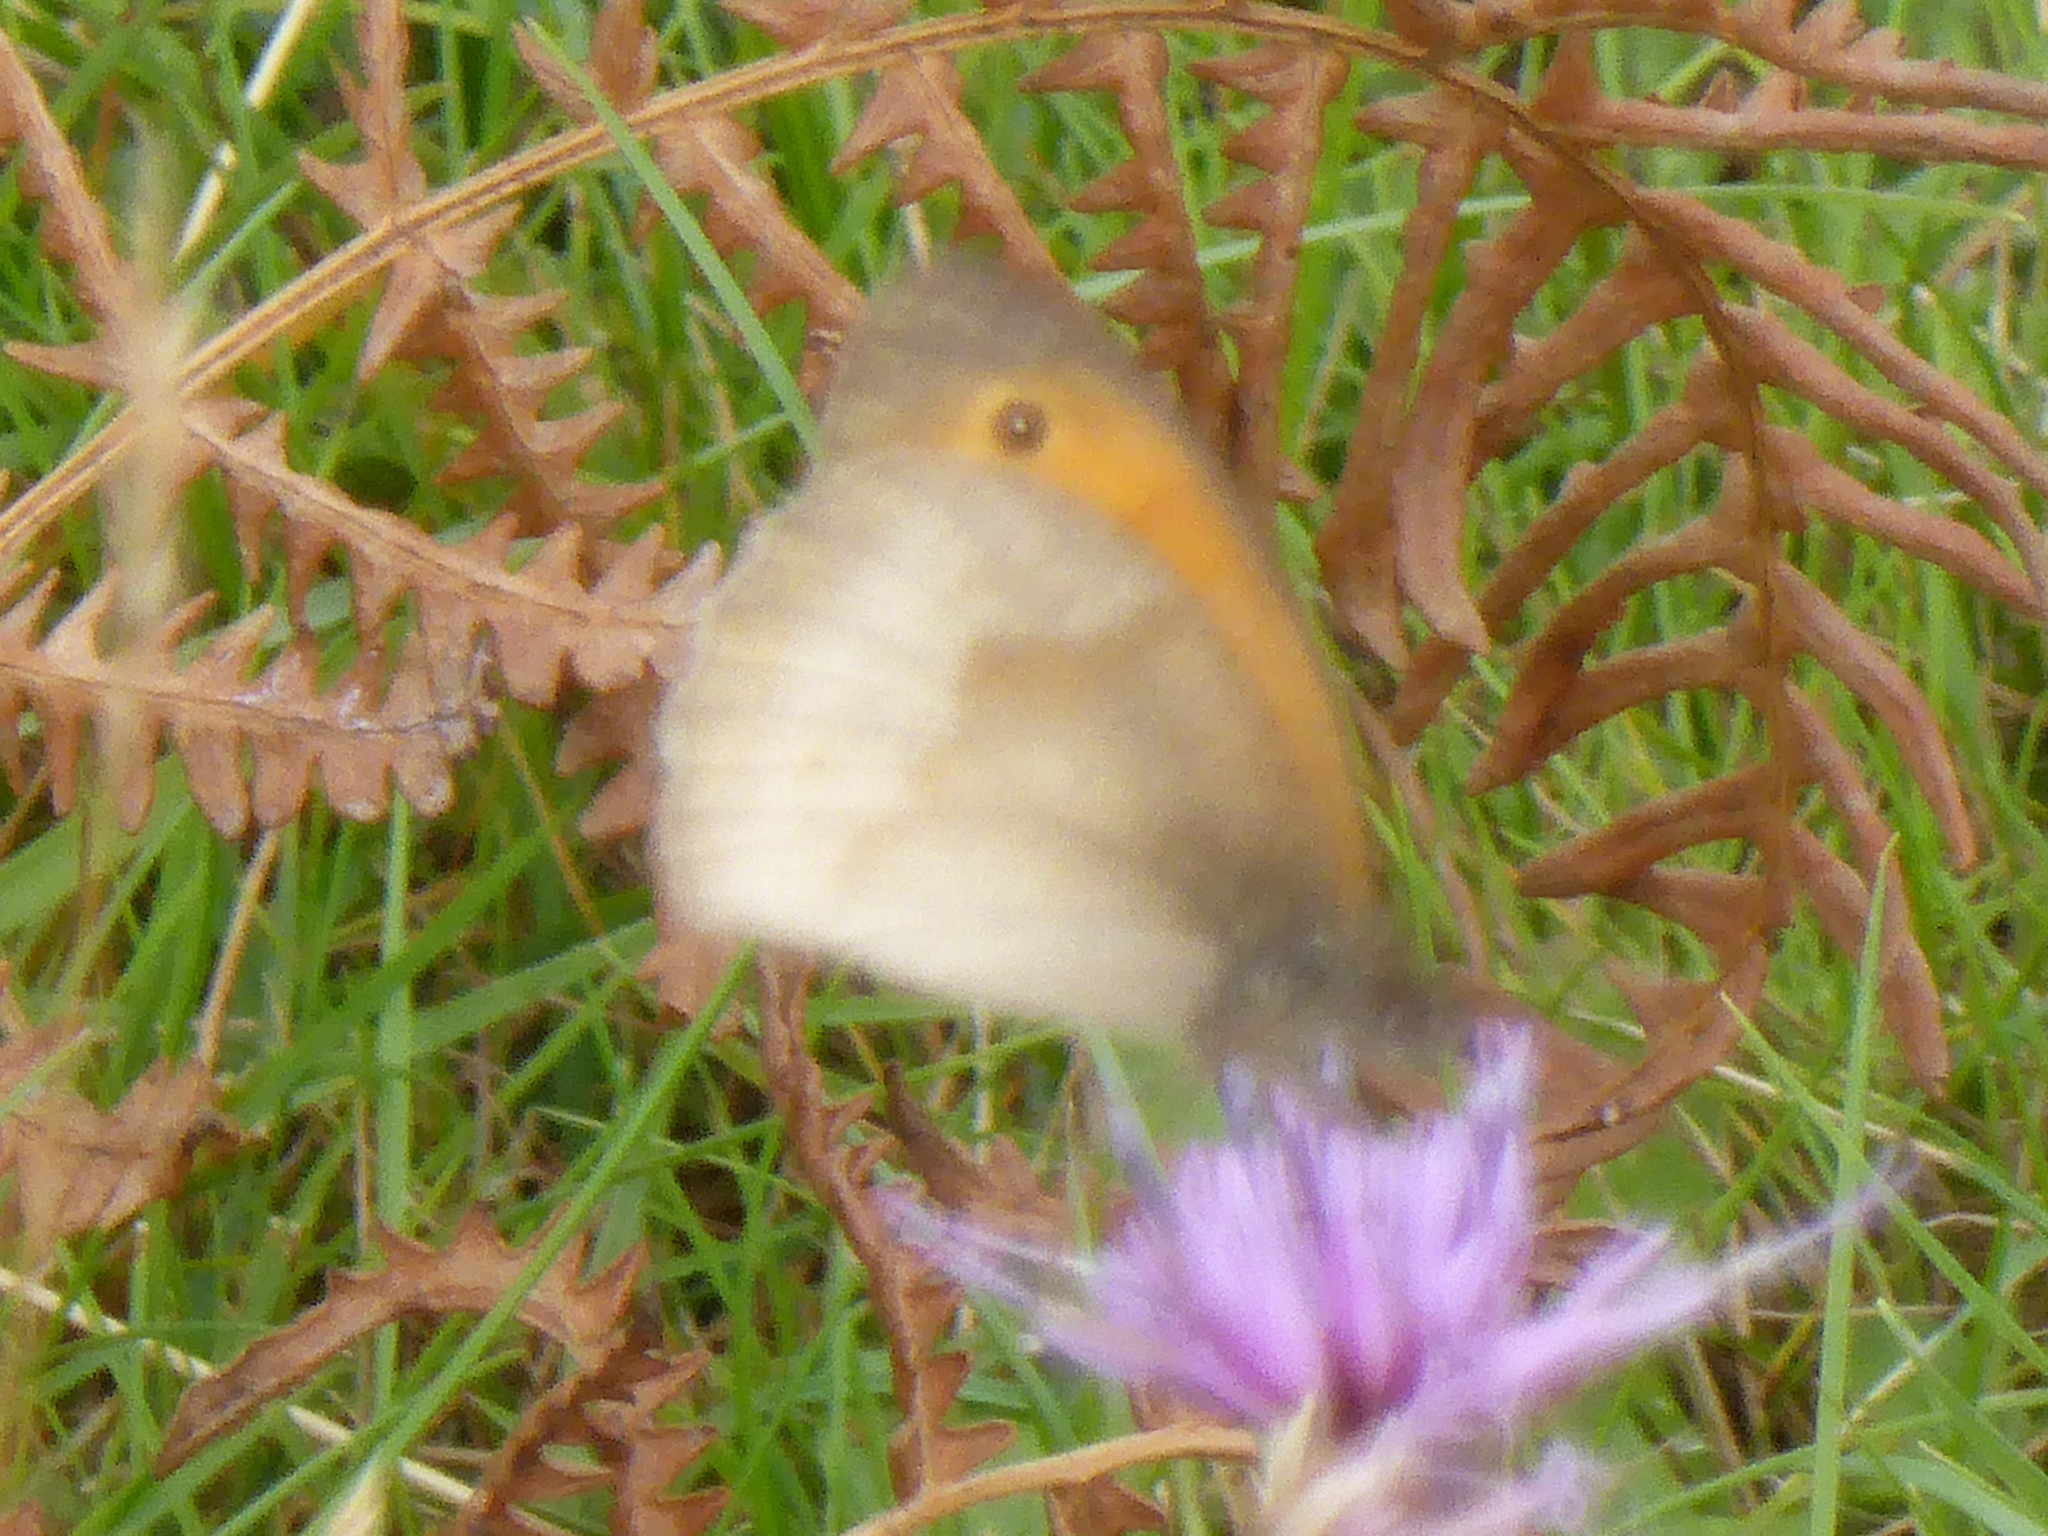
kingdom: Animalia
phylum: Arthropoda
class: Insecta
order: Lepidoptera
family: Nymphalidae
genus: Maniola
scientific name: Maniola jurtina
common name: Meadow brown
